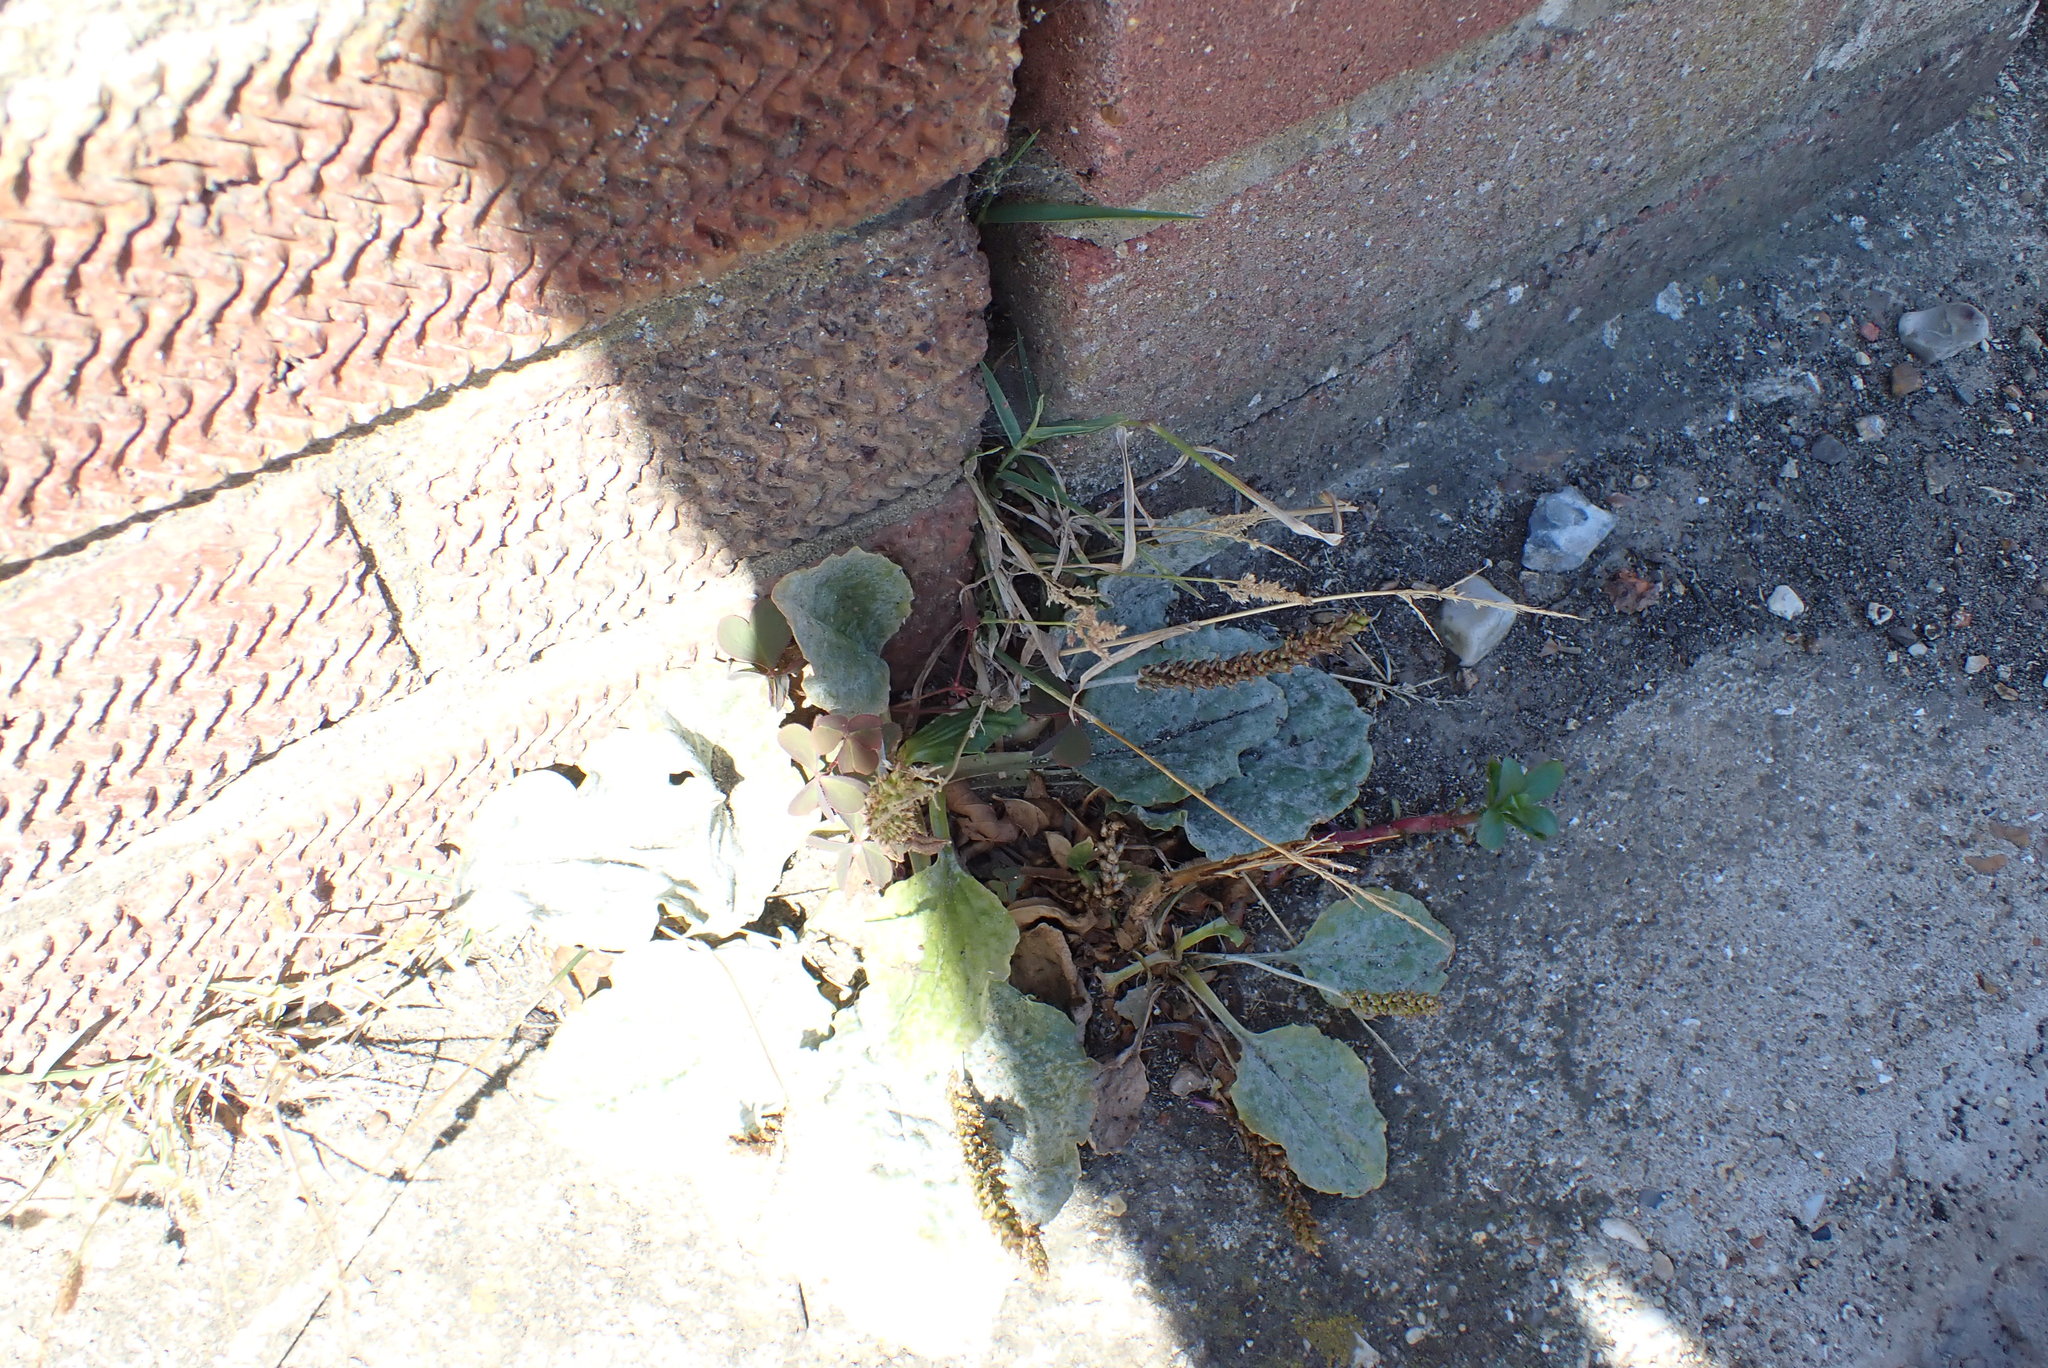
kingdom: Plantae
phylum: Tracheophyta
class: Magnoliopsida
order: Lamiales
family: Plantaginaceae
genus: Plantago
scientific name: Plantago major
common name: Common plantain
